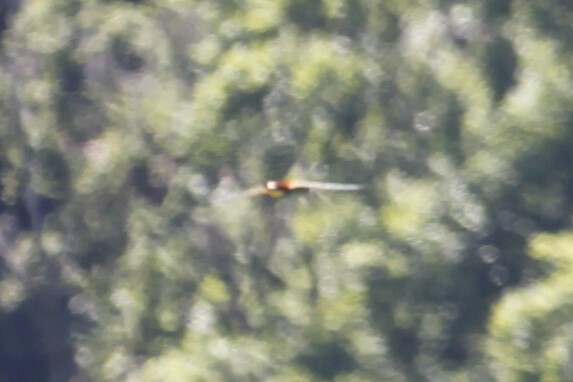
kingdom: Animalia
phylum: Chordata
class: Aves
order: Coraciiformes
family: Meropidae
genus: Merops
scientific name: Merops apiaster
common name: European bee-eater
